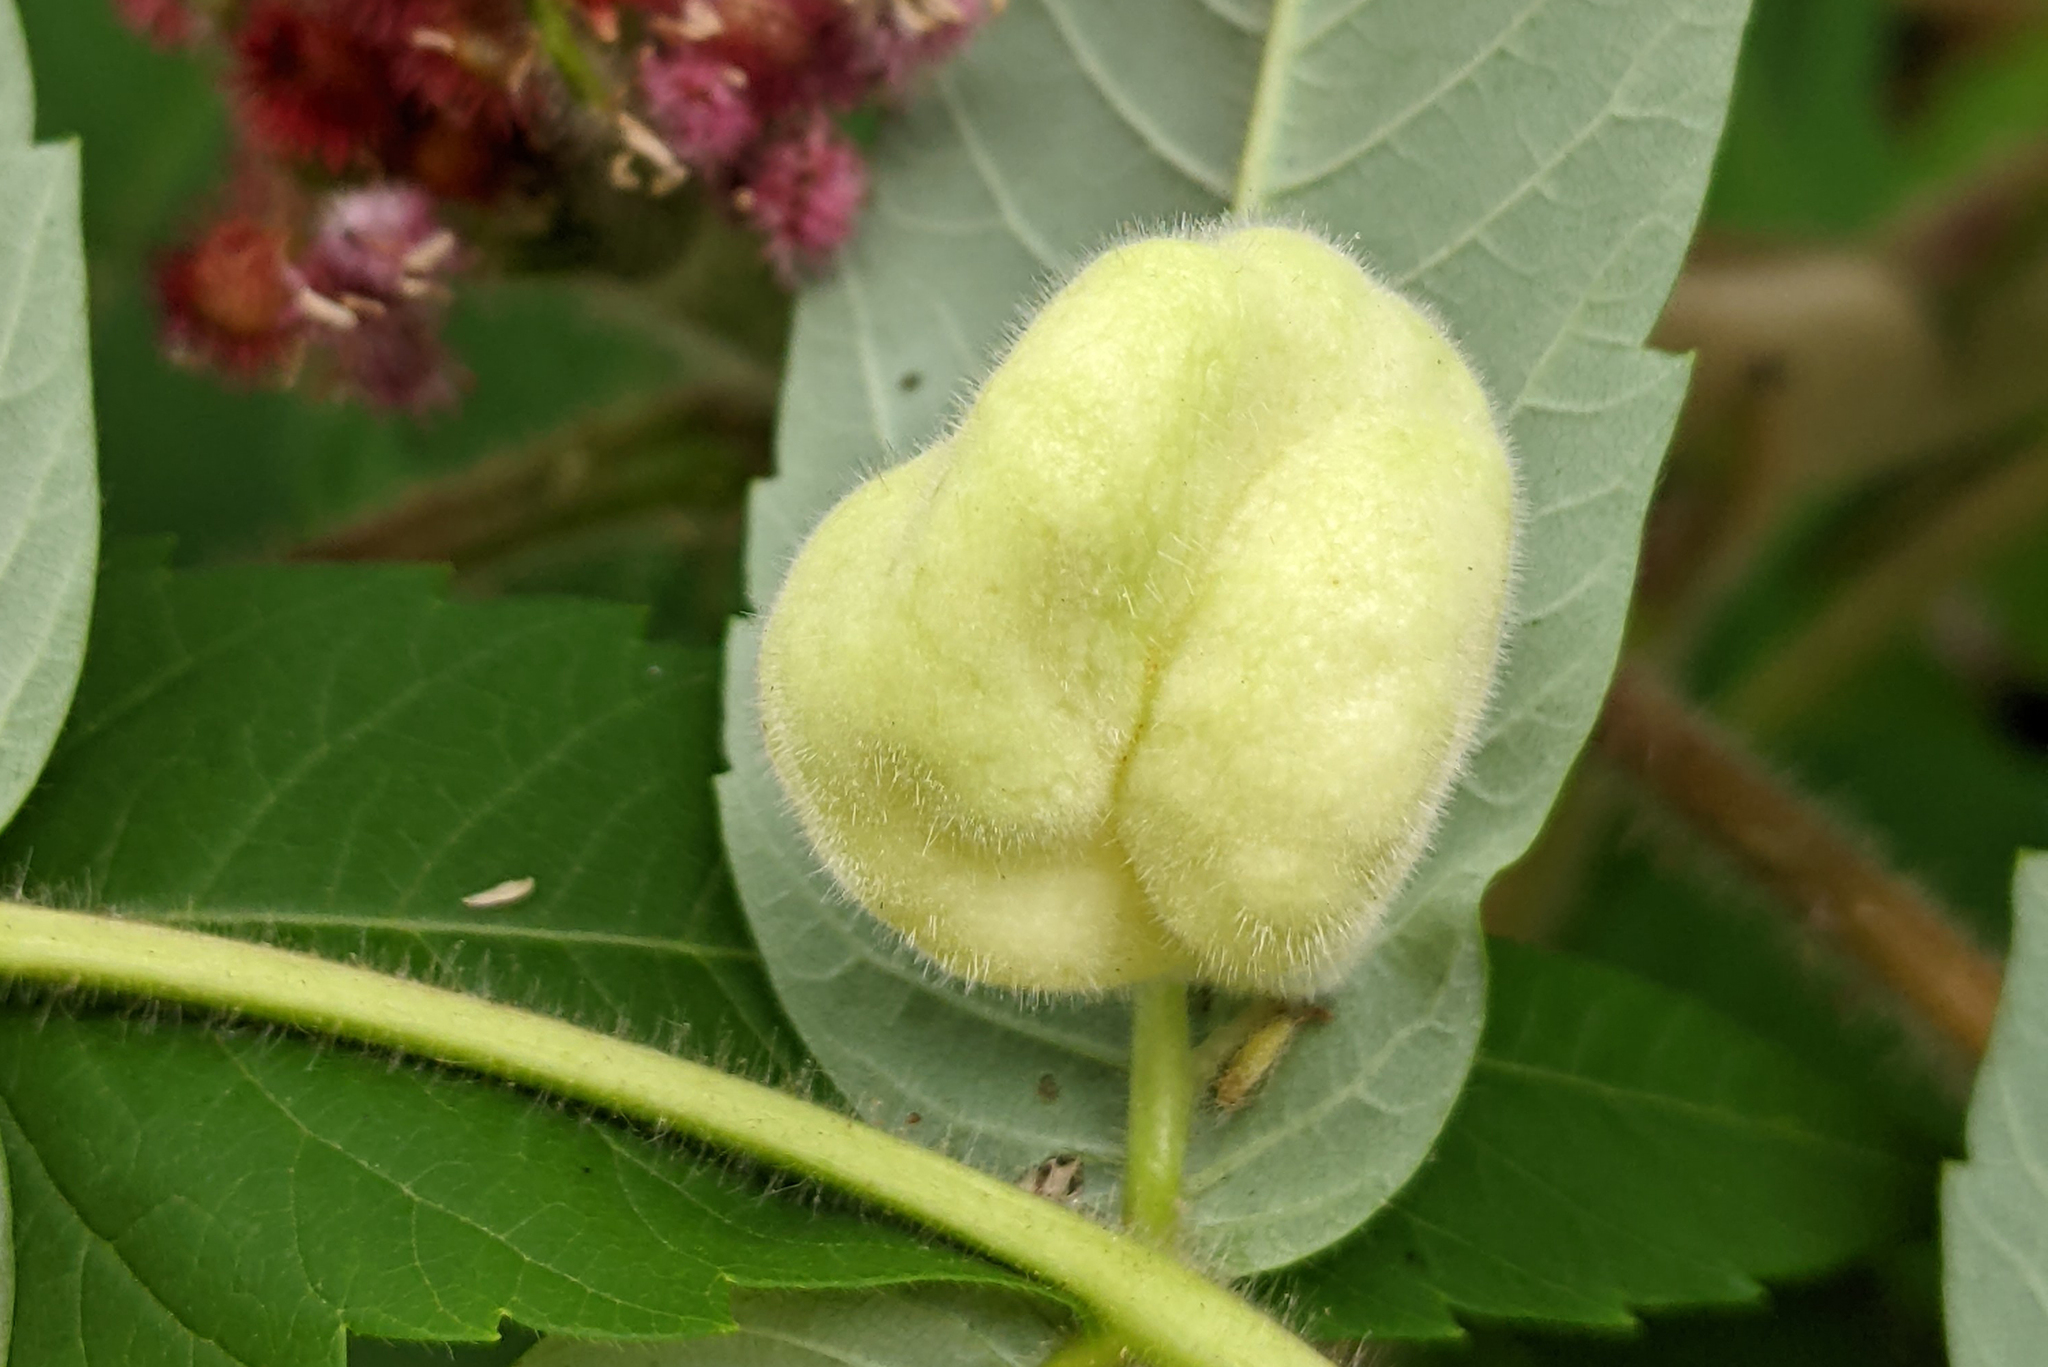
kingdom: Animalia
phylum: Arthropoda
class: Insecta
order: Hemiptera
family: Aphididae
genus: Melaphis
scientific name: Melaphis rhois
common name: Sumac gall aphid
